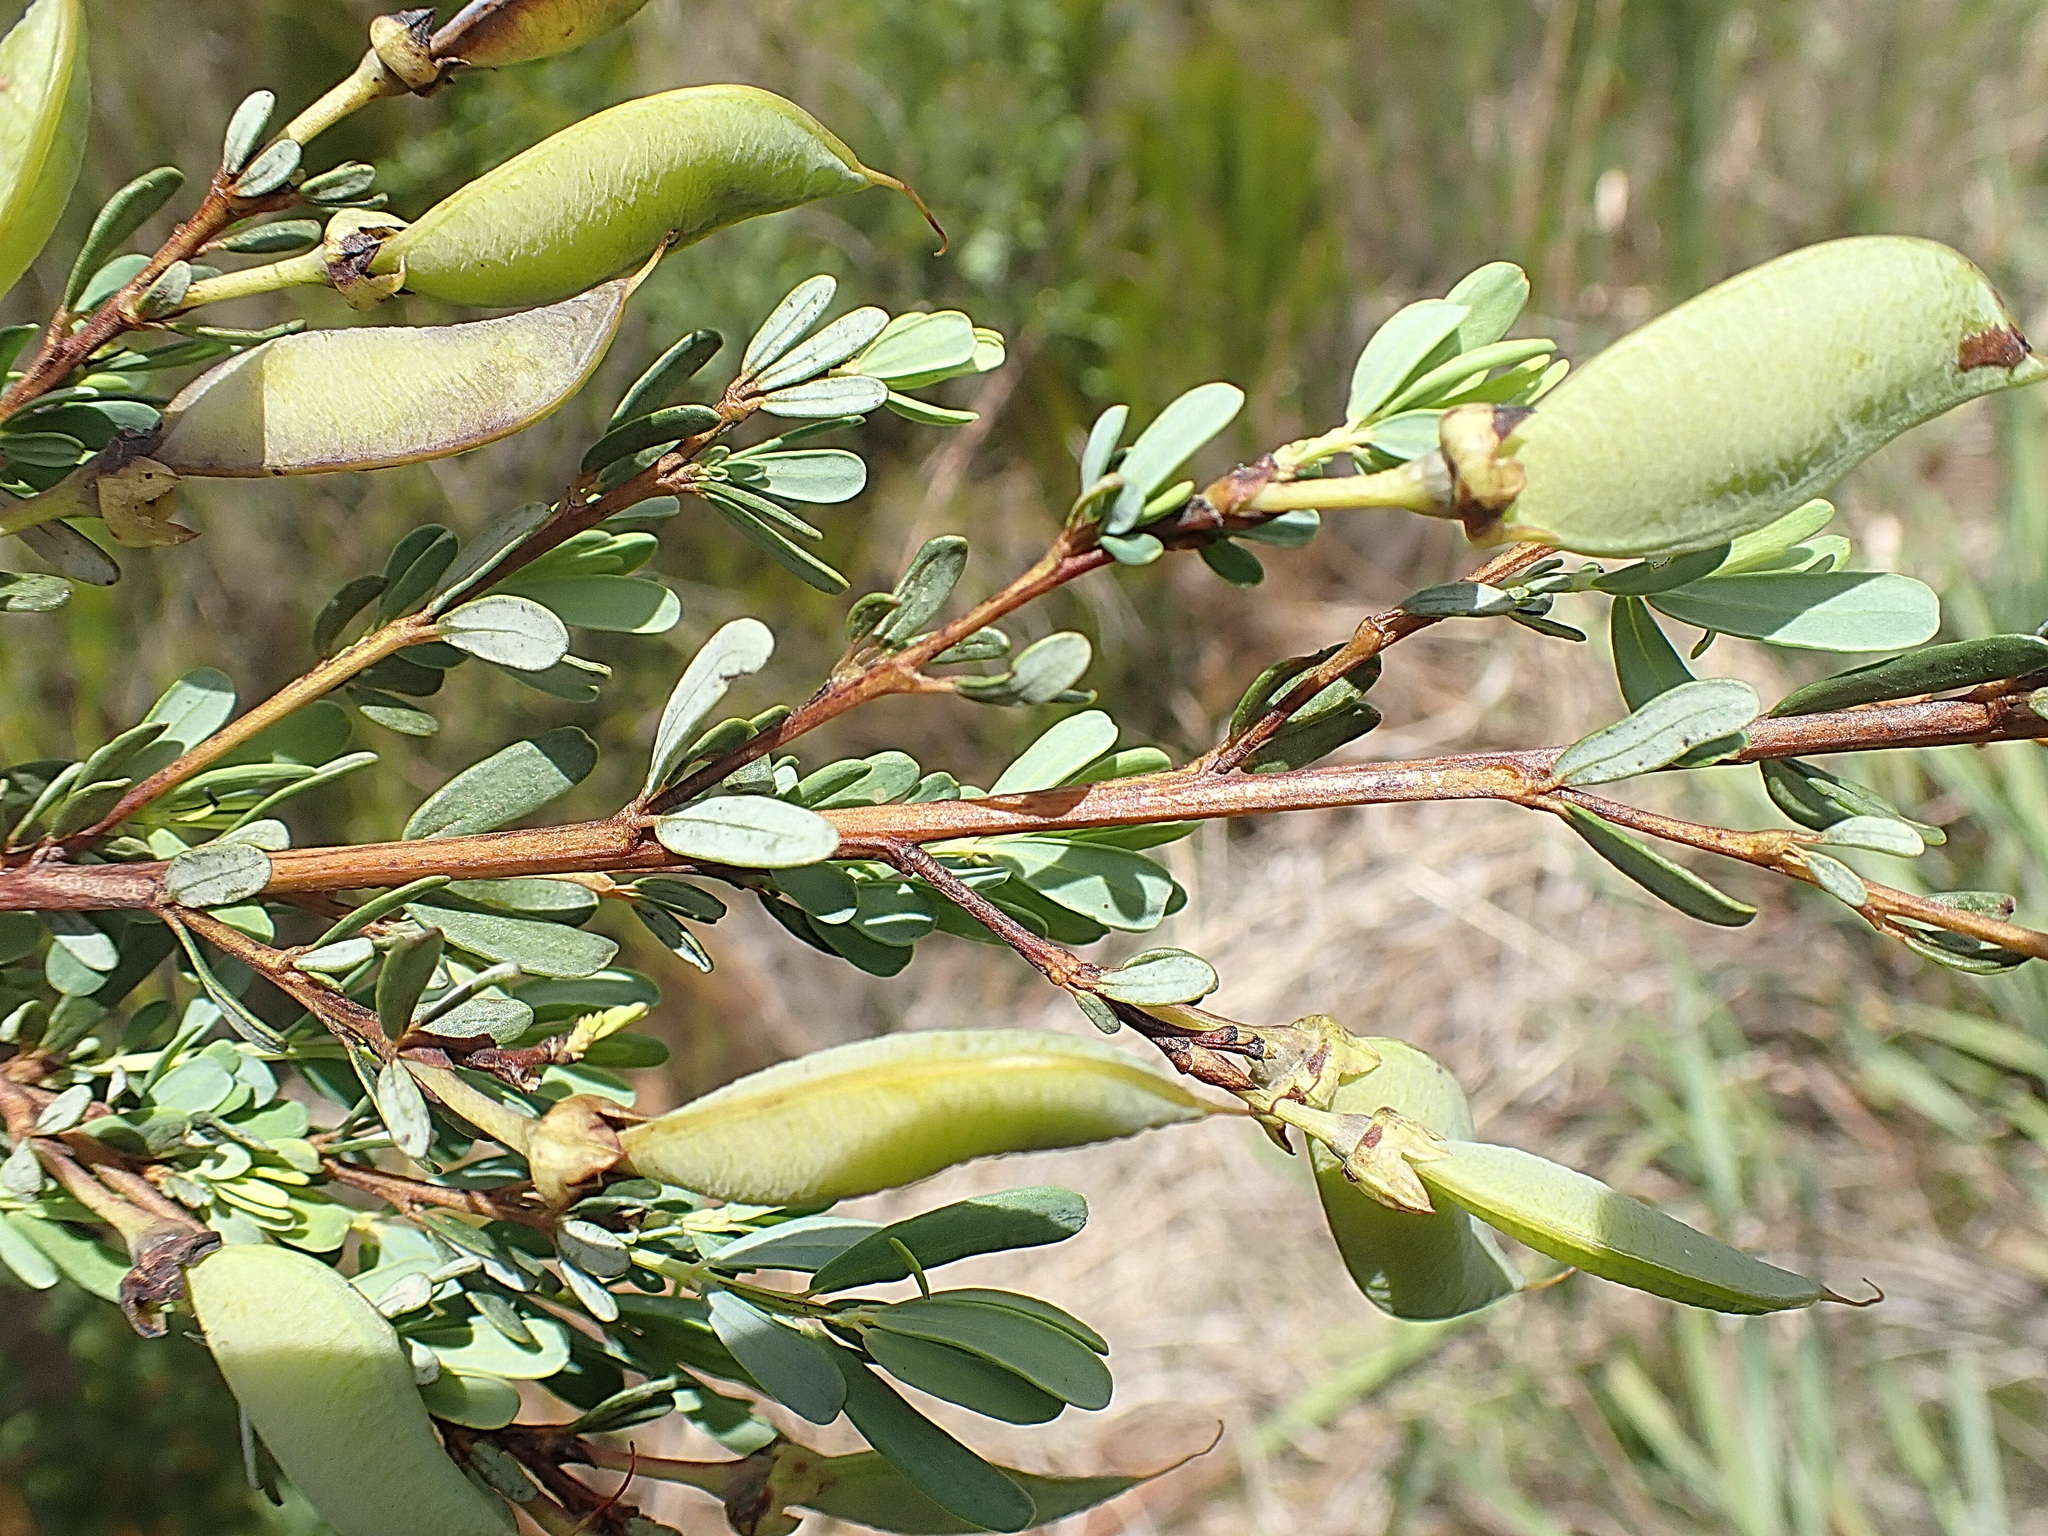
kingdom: Plantae
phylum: Tracheophyta
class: Magnoliopsida
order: Fabales
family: Fabaceae
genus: Cyclopia
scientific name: Cyclopia subternata
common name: Honeybush tea
